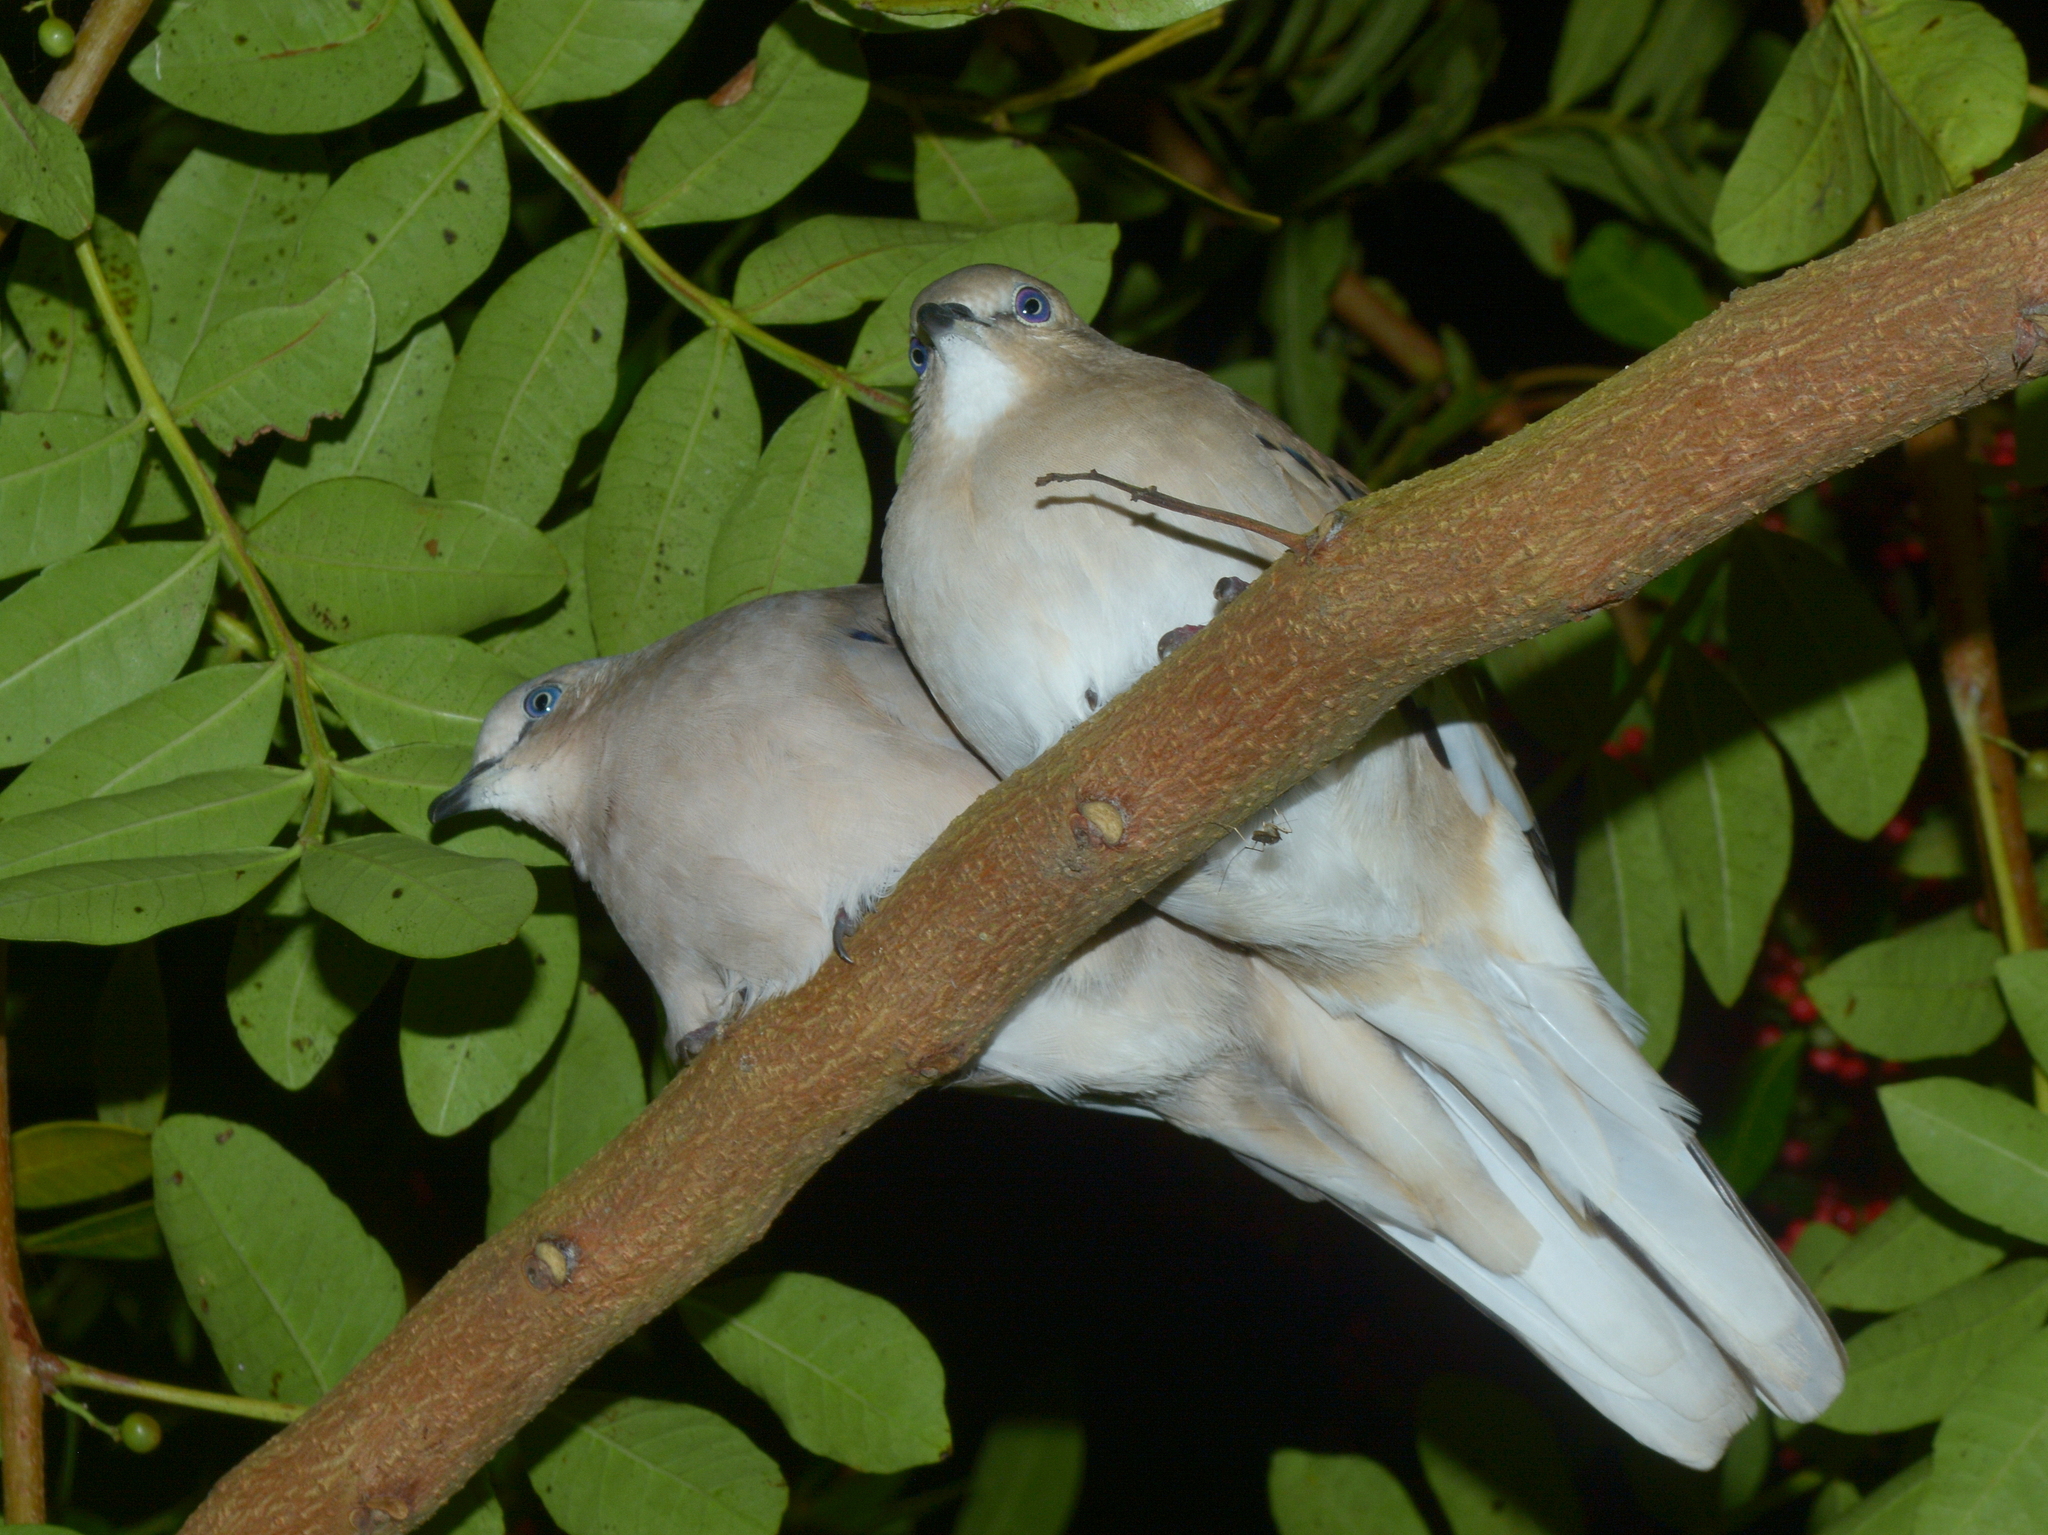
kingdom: Animalia
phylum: Chordata
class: Aves
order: Columbiformes
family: Columbidae
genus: Columbina
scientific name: Columbina picui
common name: Picui ground dove
